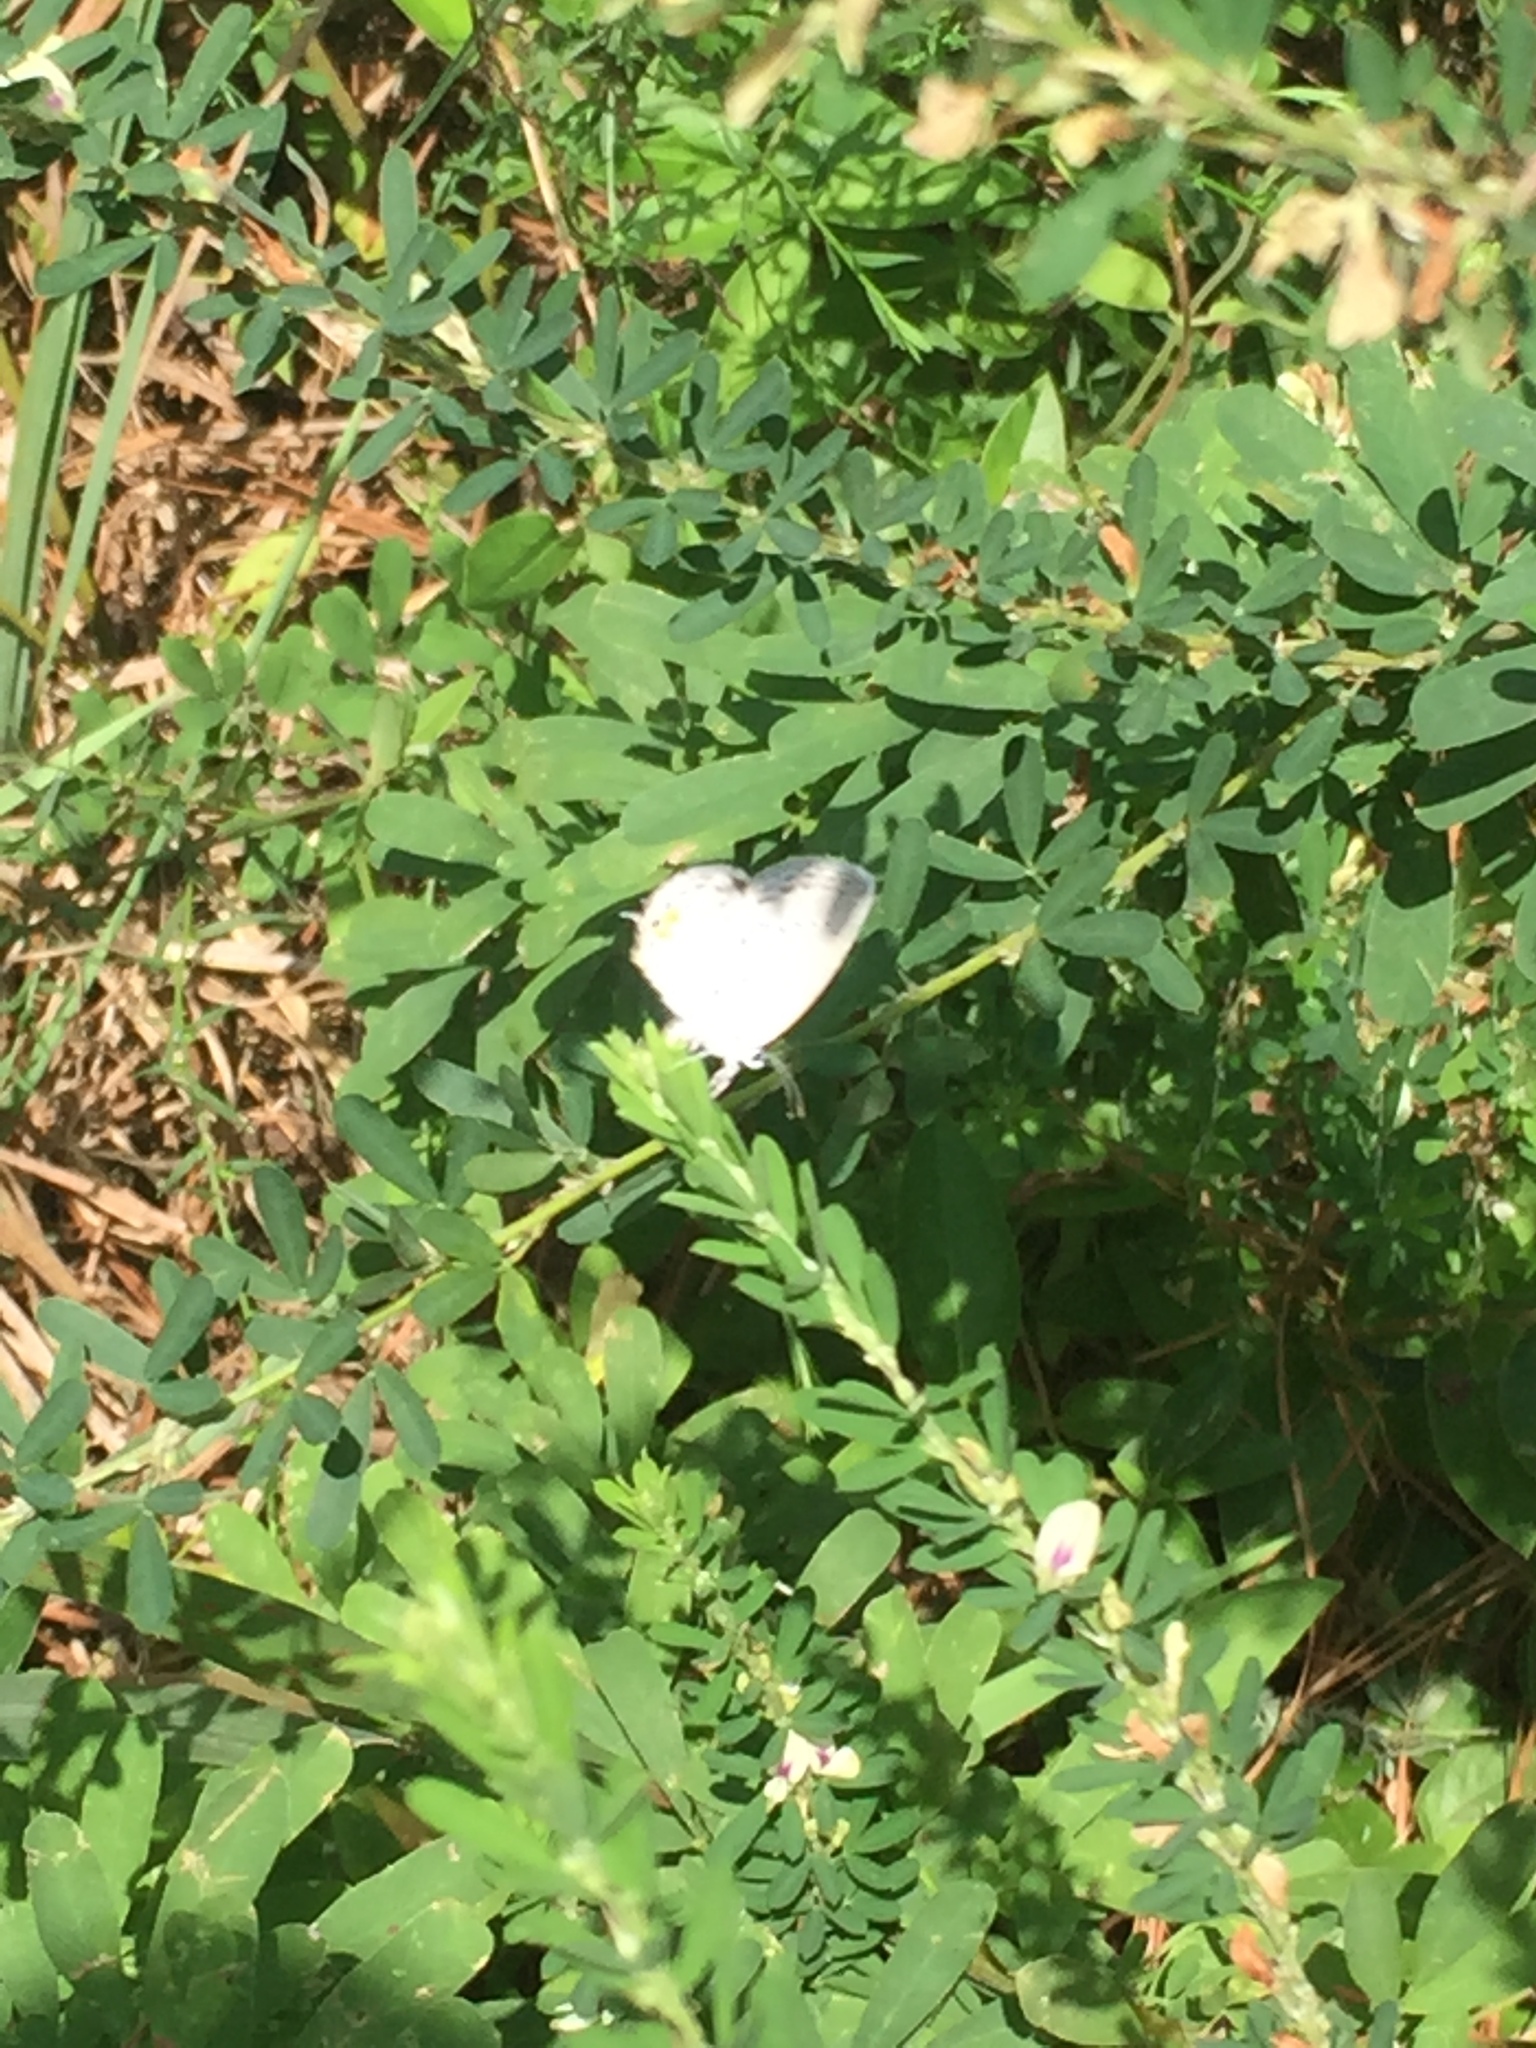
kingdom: Animalia
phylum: Arthropoda
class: Insecta
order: Lepidoptera
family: Lycaenidae
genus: Elkalyce
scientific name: Elkalyce comyntas
